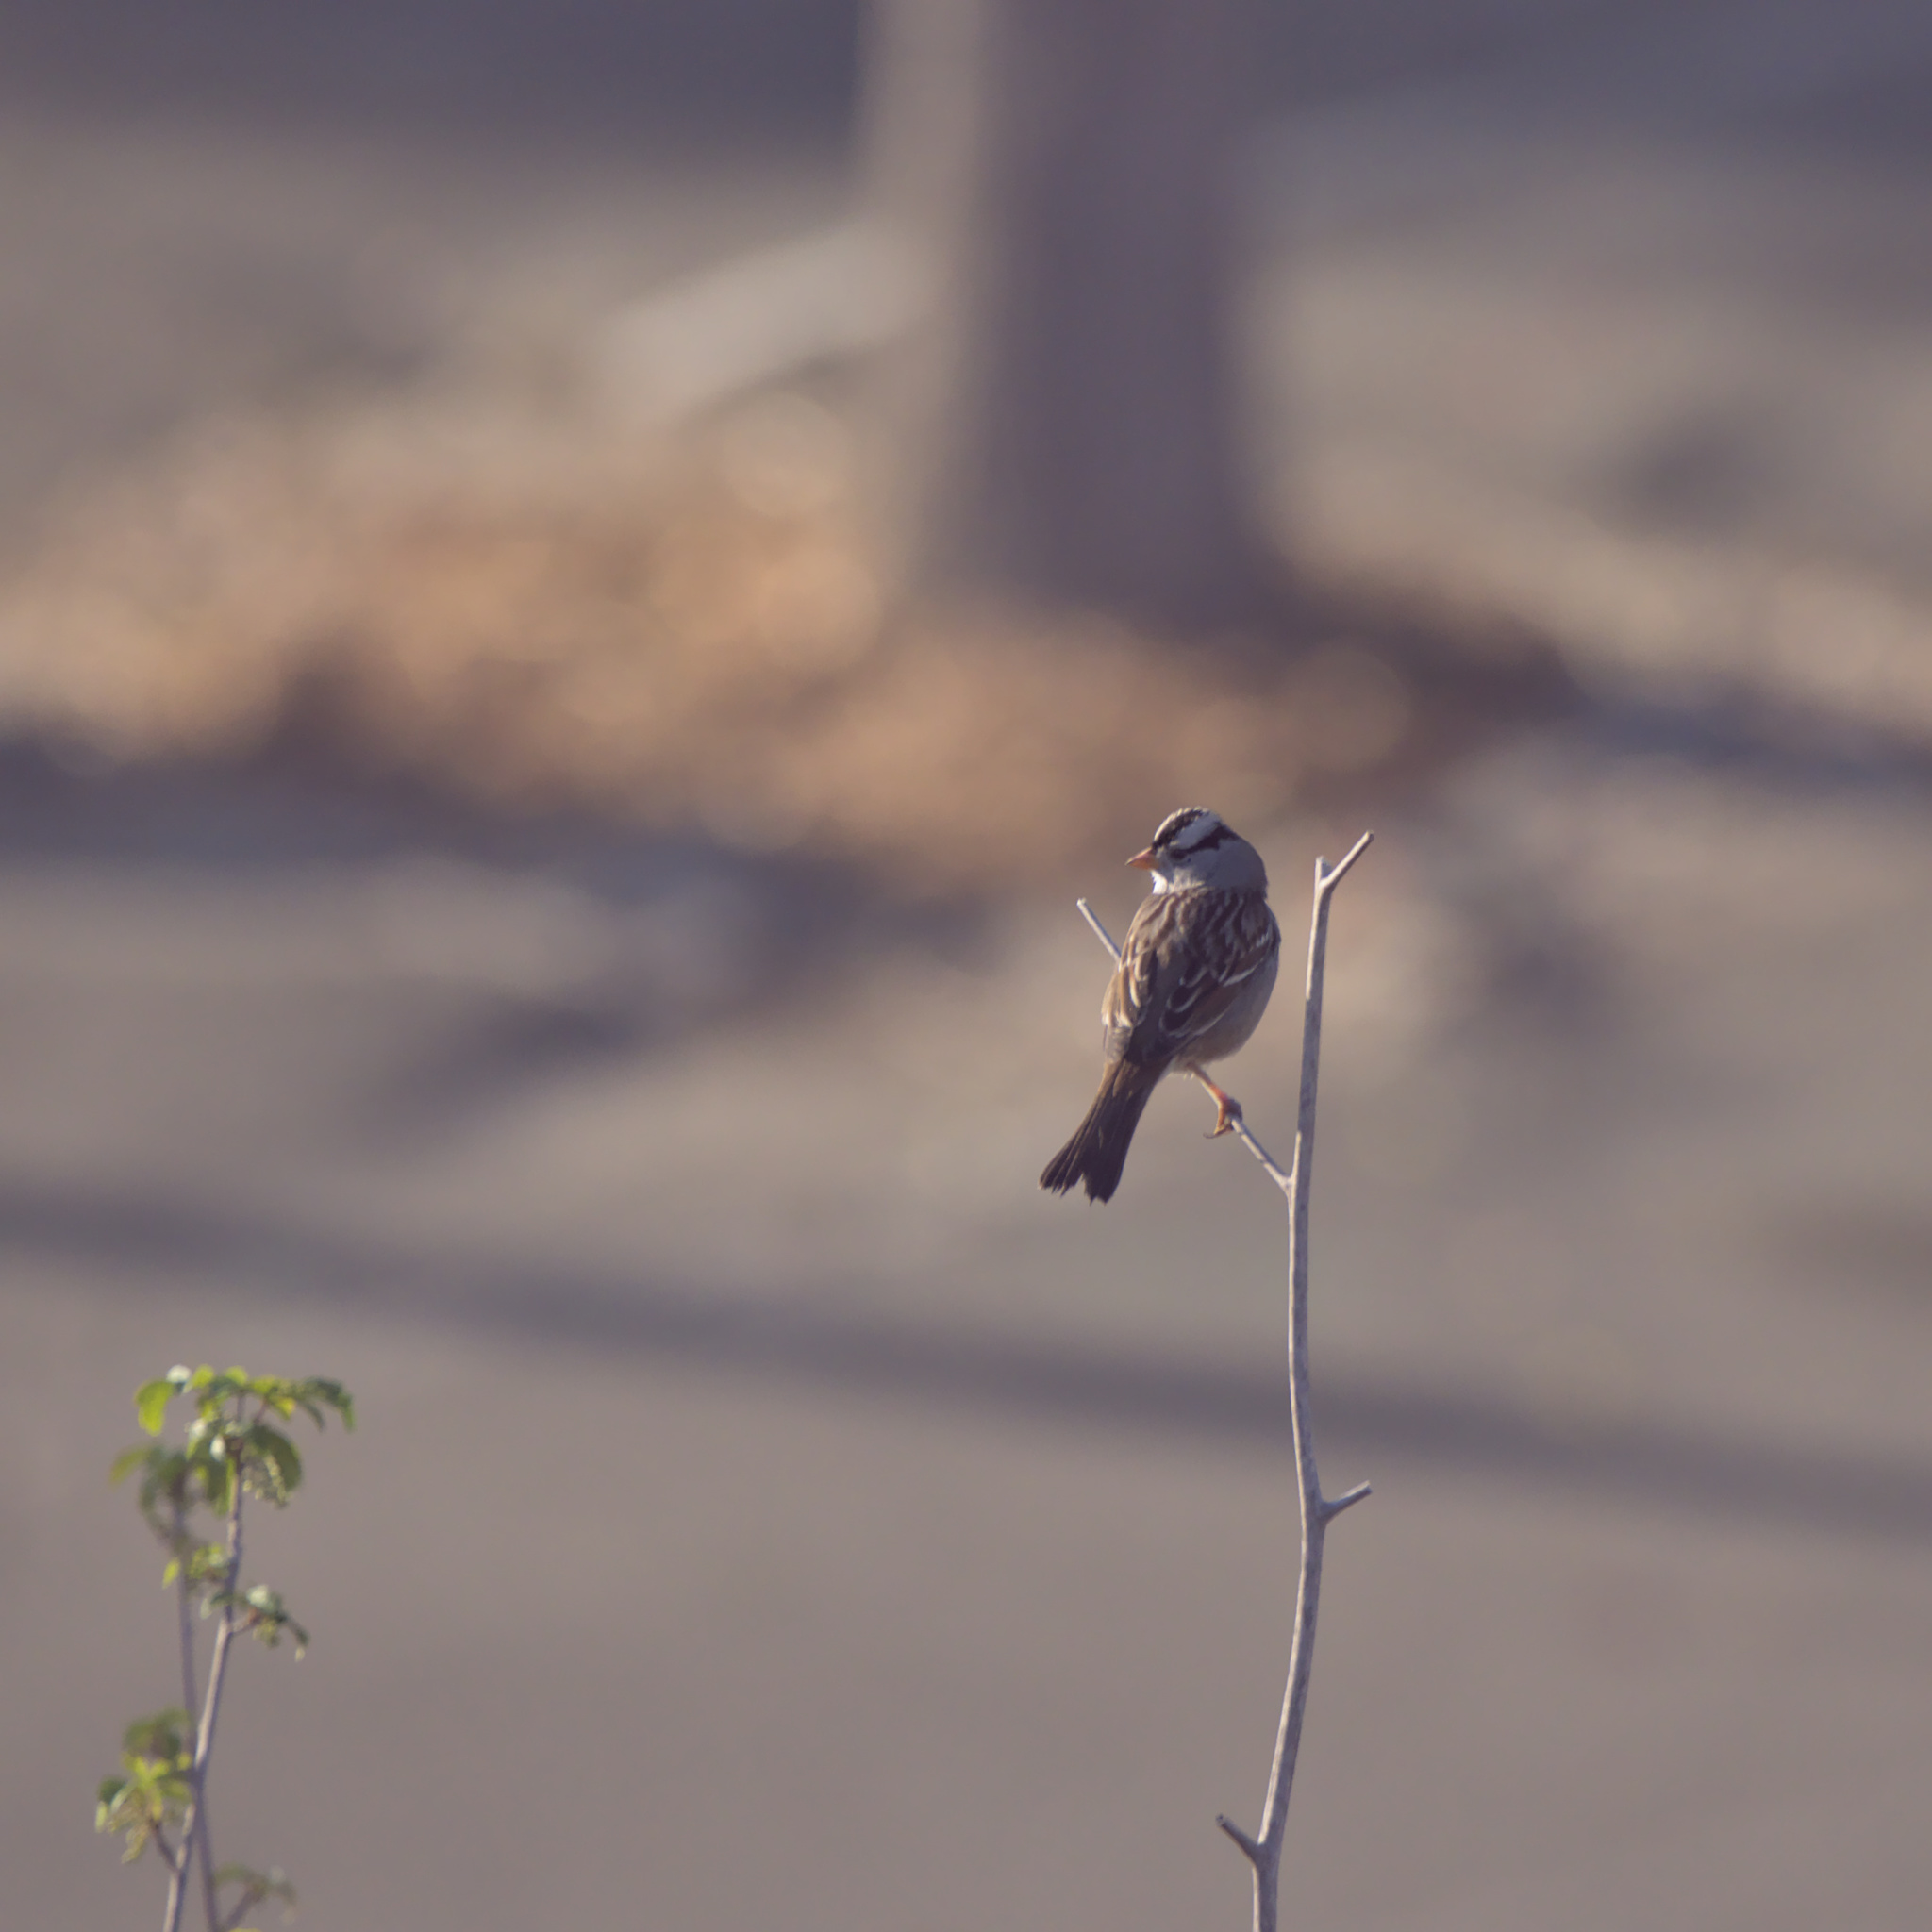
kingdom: Animalia
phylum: Chordata
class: Aves
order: Passeriformes
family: Passerellidae
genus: Zonotrichia
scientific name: Zonotrichia leucophrys
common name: White-crowned sparrow
